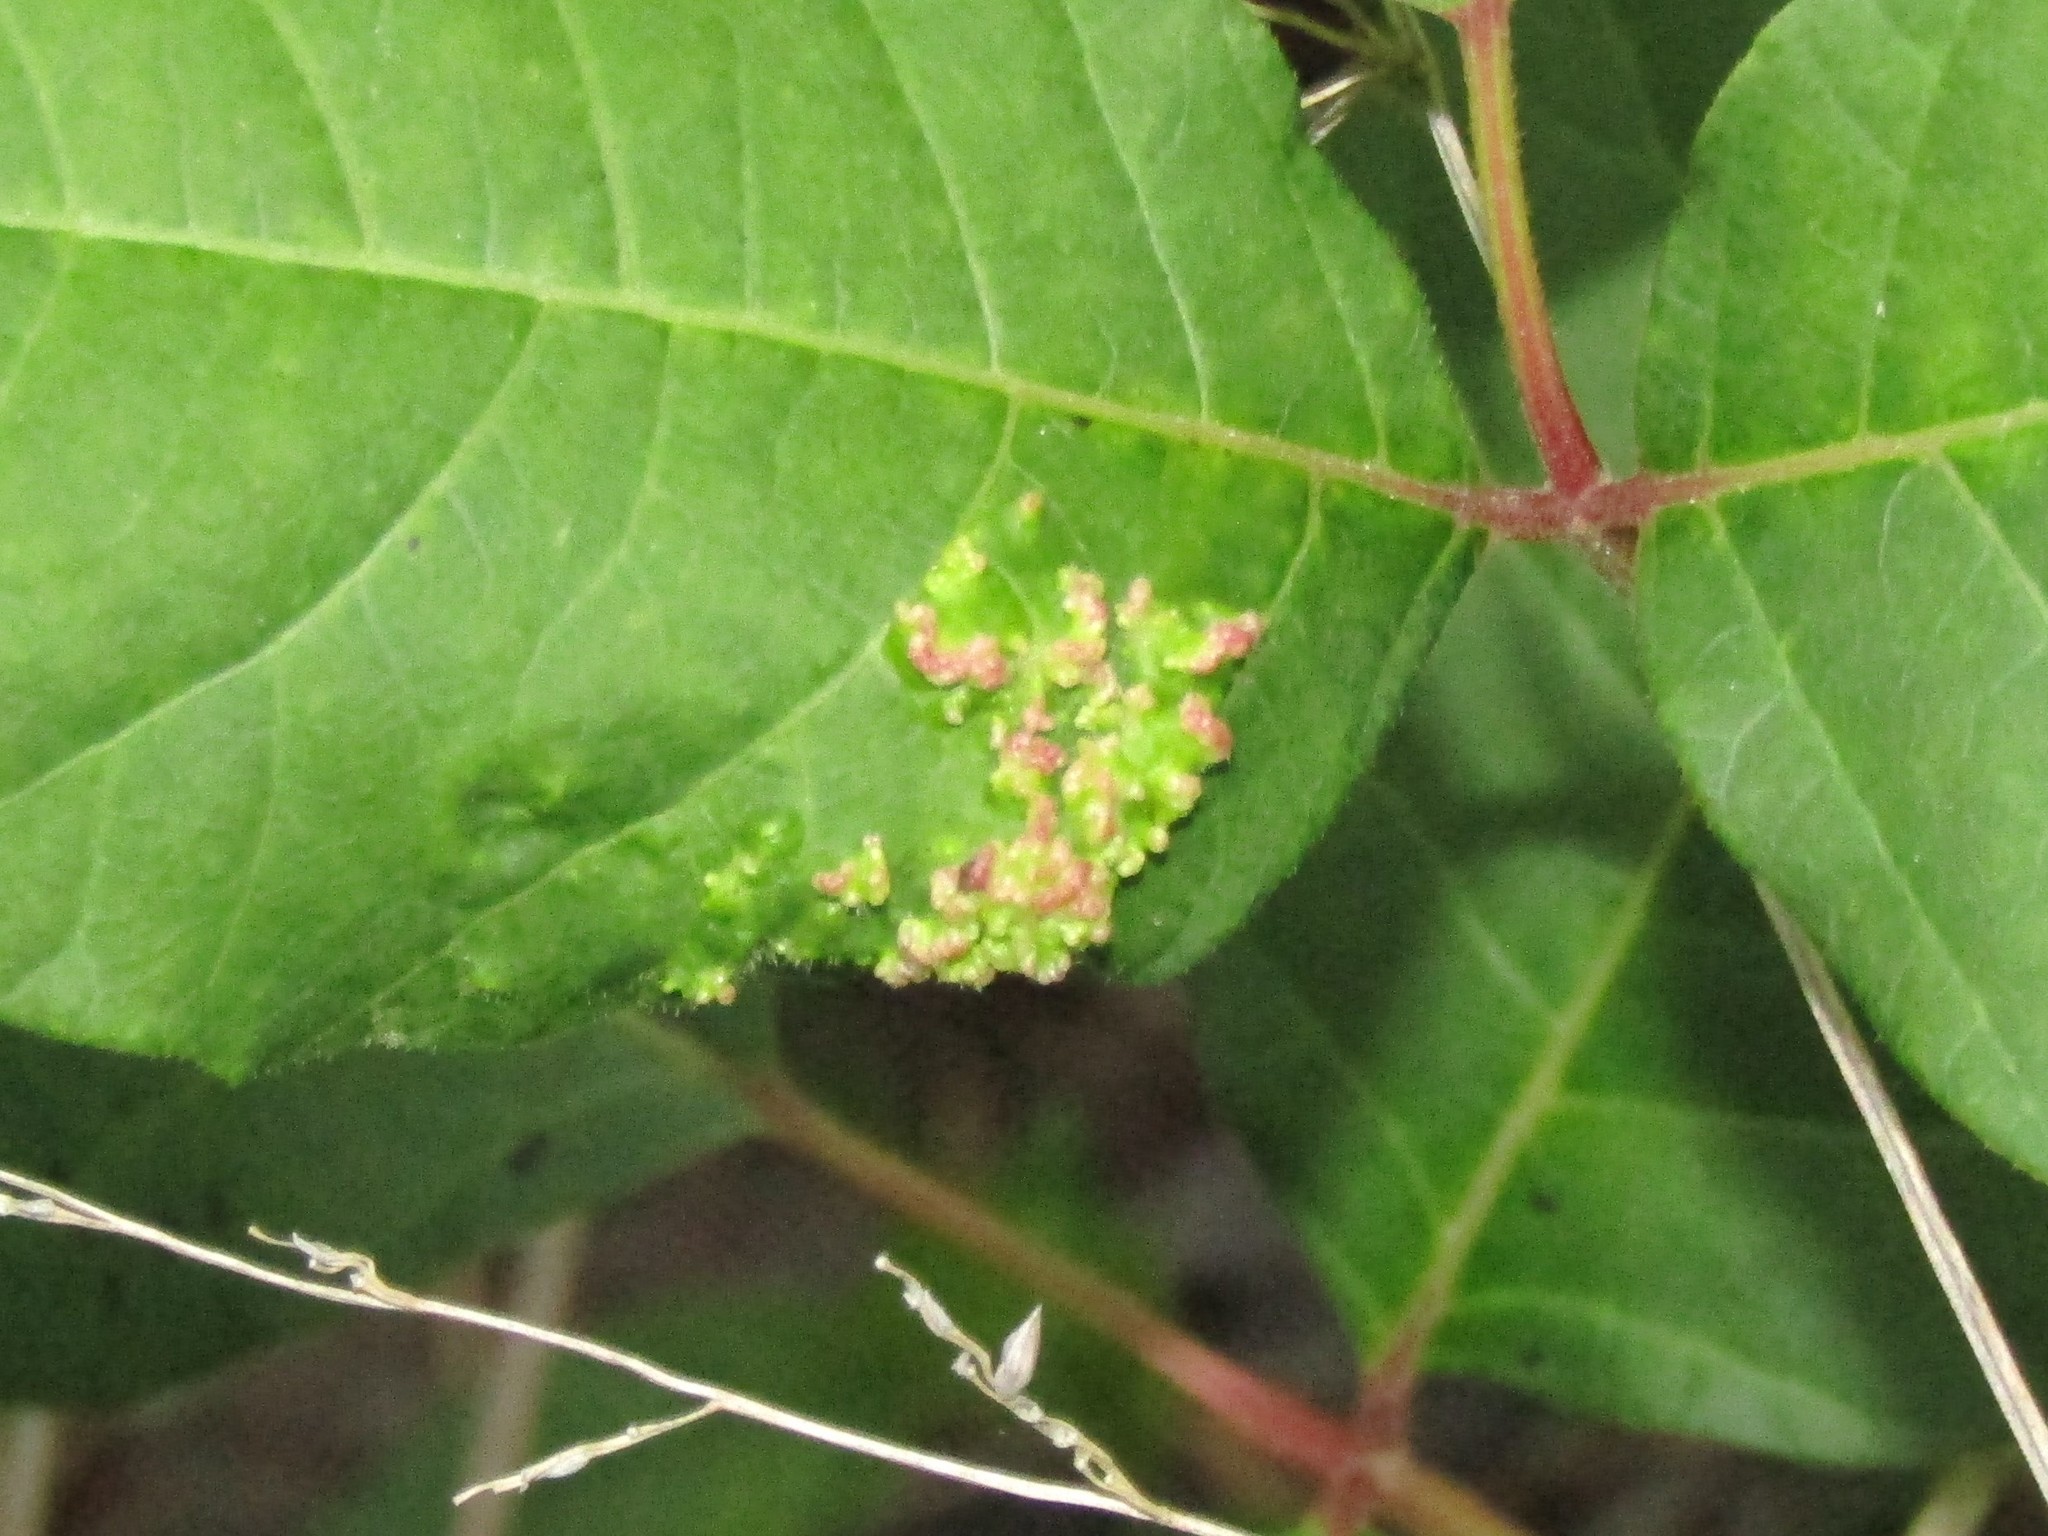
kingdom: Animalia
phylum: Arthropoda
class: Arachnida
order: Trombidiformes
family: Eriophyidae
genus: Aculops
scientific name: Aculops
